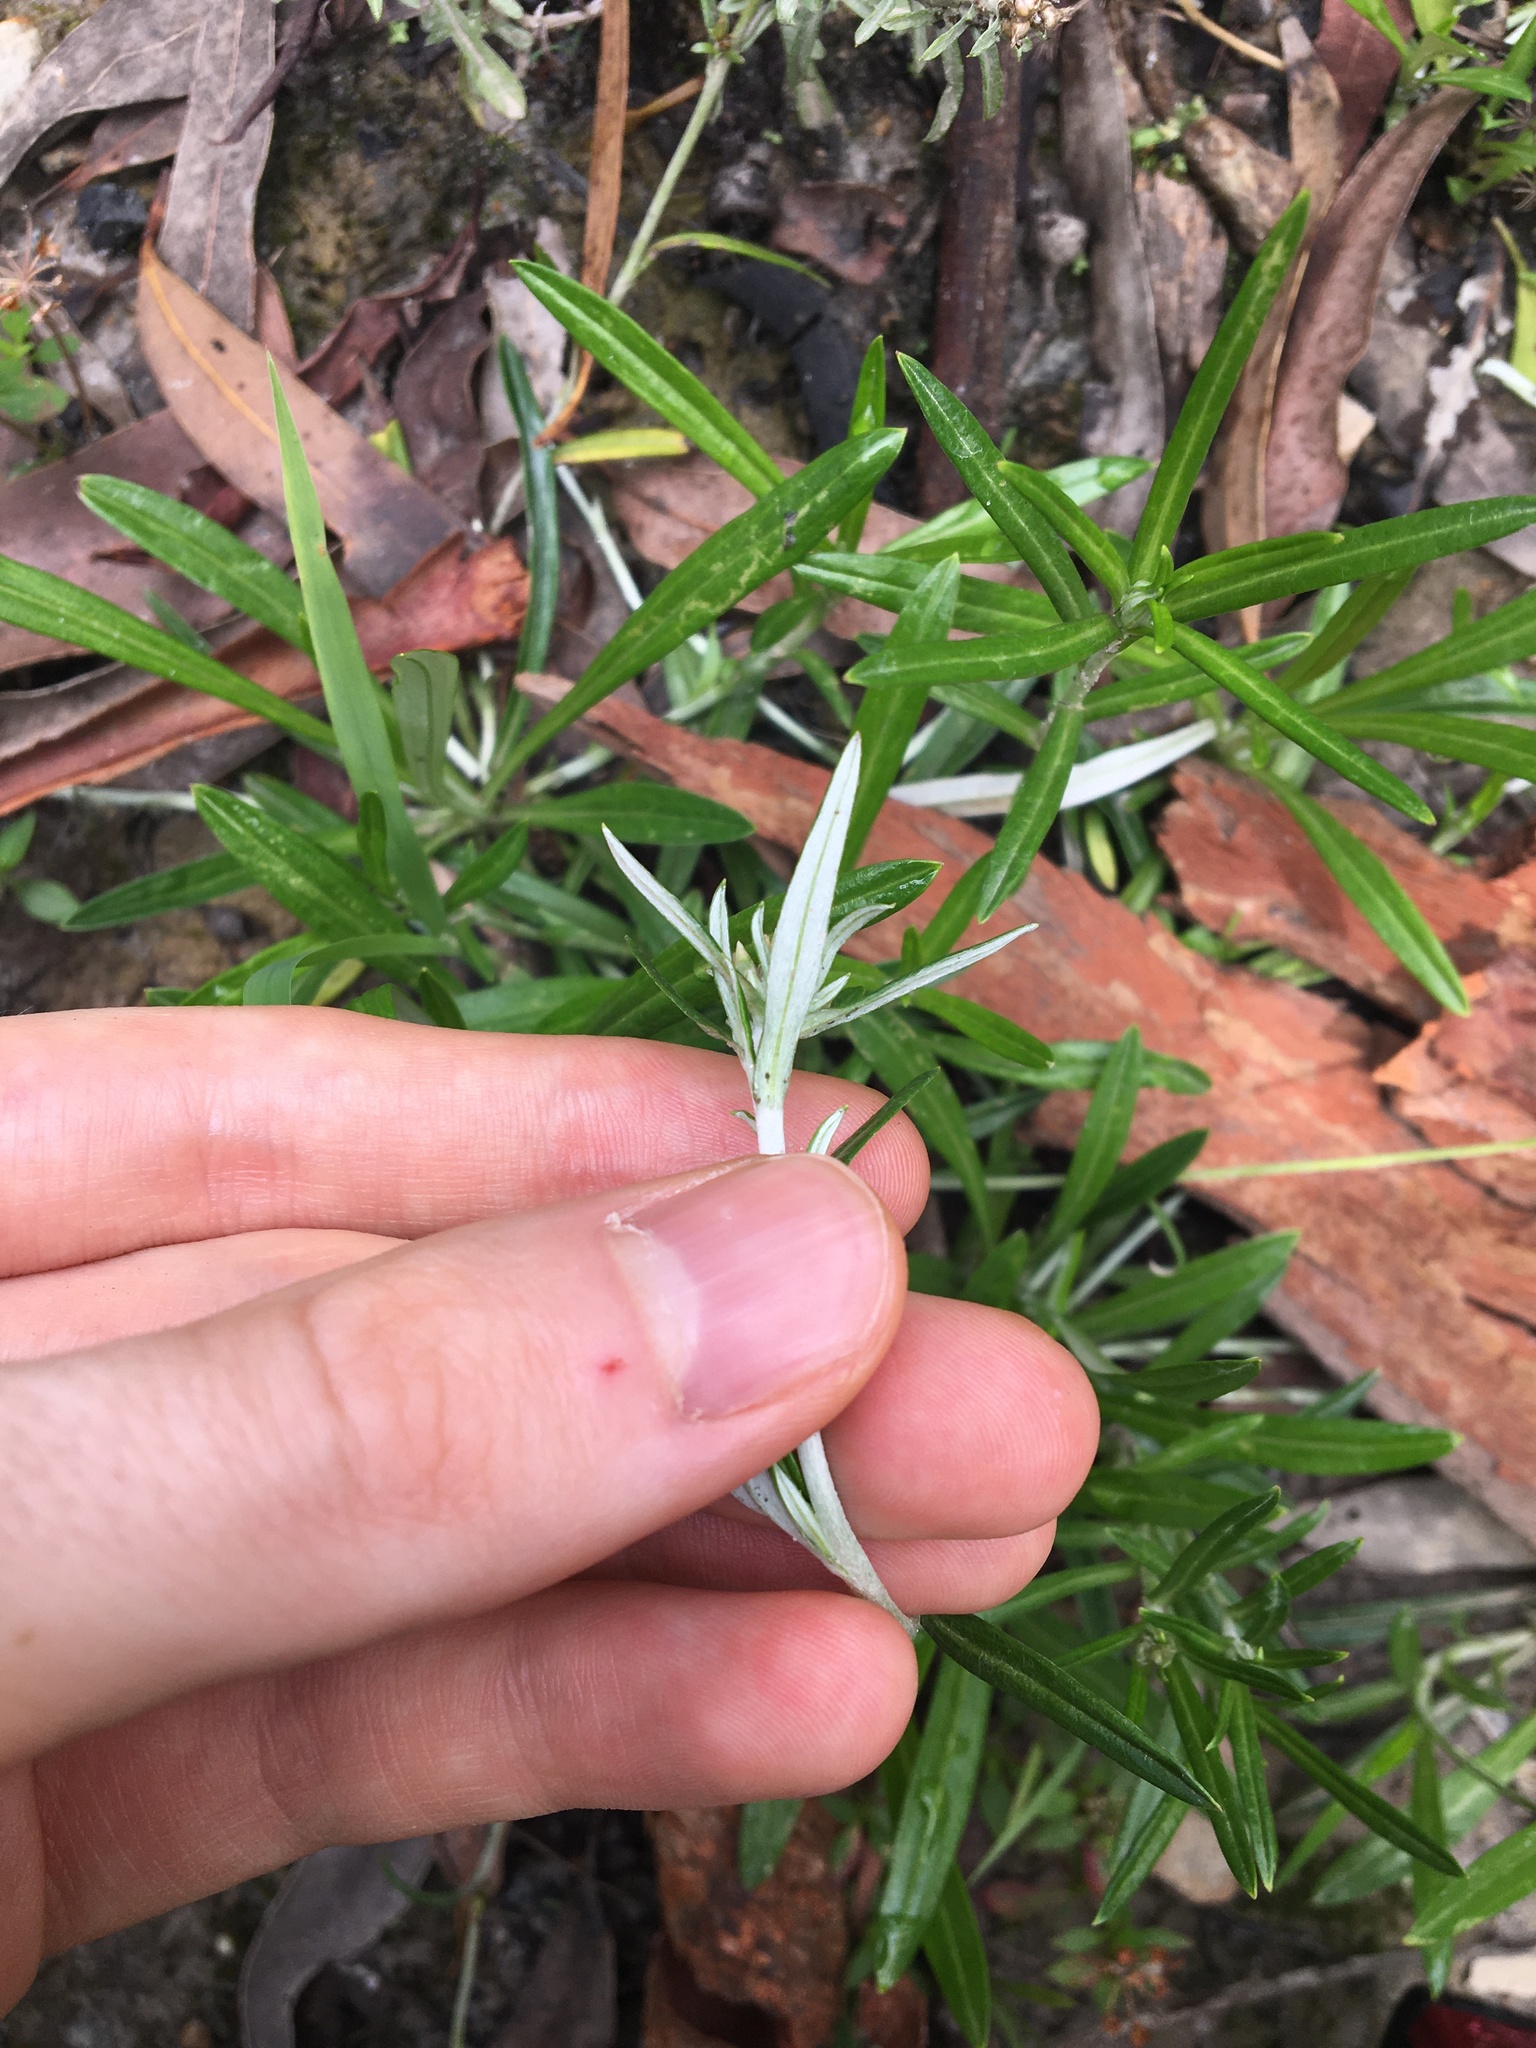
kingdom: Plantae
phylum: Tracheophyta
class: Magnoliopsida
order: Asterales
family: Asteraceae
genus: Euchiton
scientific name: Euchiton involucratus
